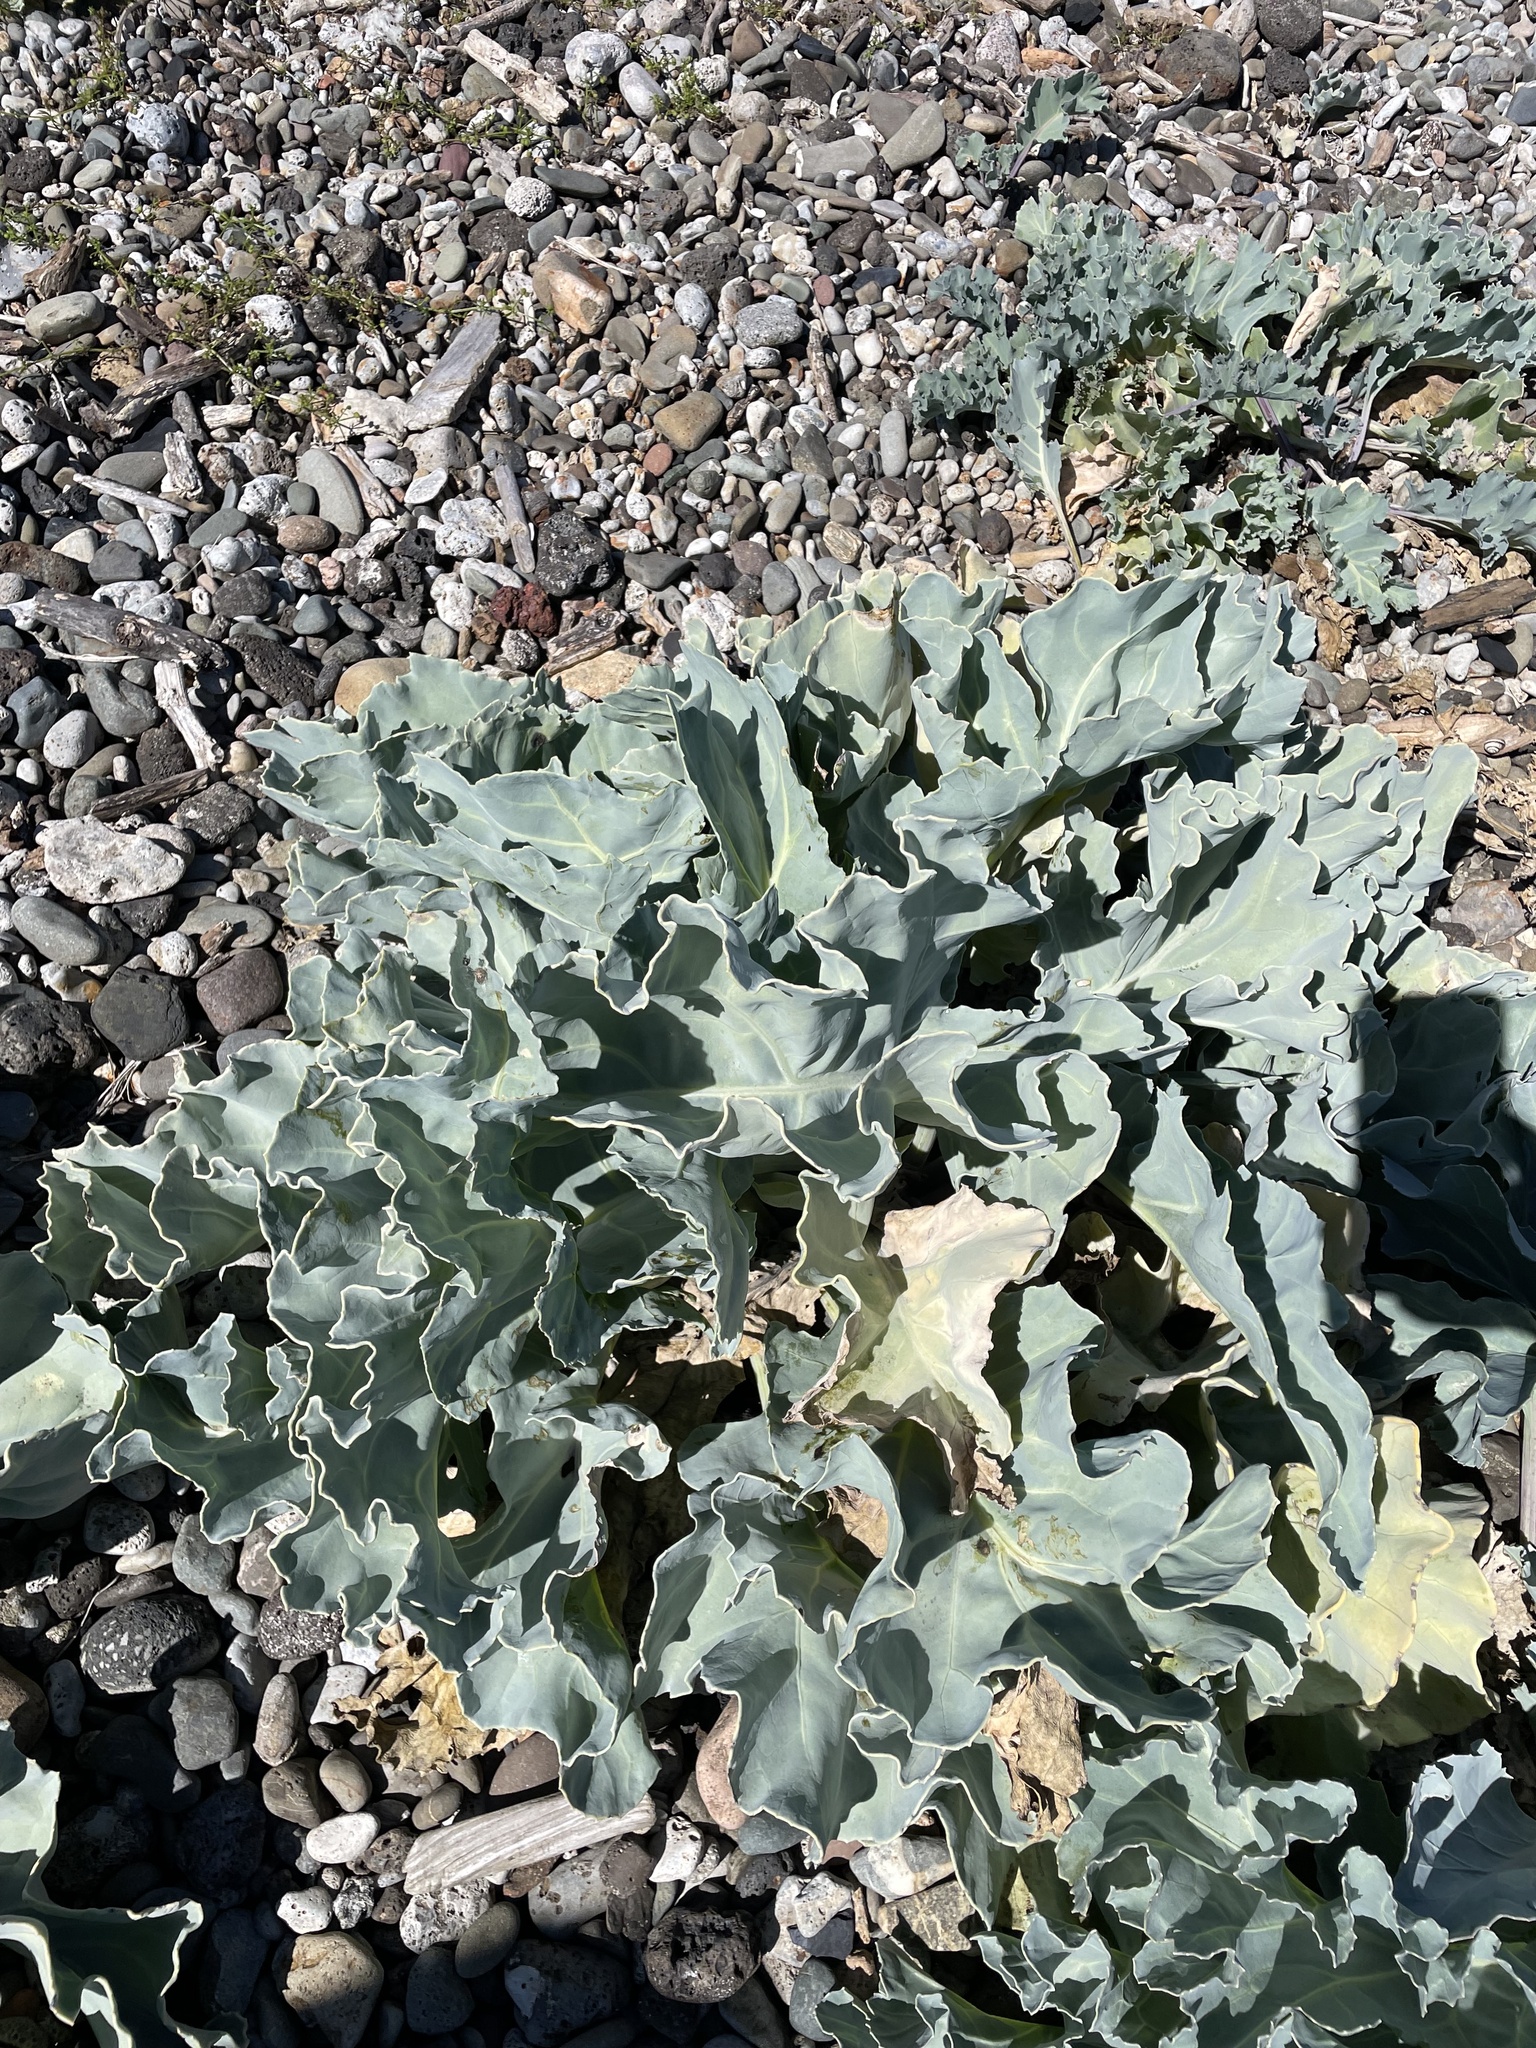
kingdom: Plantae
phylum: Tracheophyta
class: Magnoliopsida
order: Brassicales
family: Brassicaceae
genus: Crambe
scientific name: Crambe maritima
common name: Sea-kale
